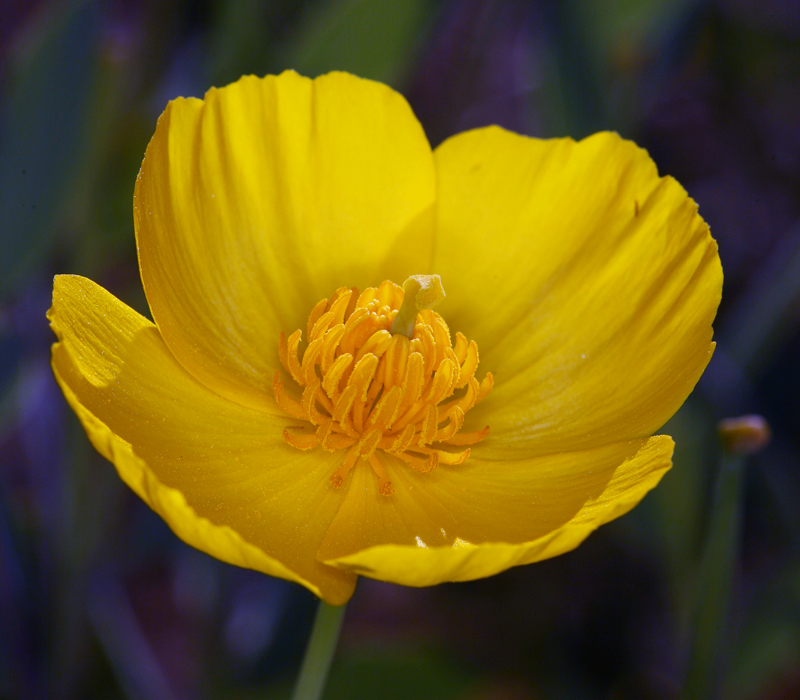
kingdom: Plantae
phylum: Tracheophyta
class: Magnoliopsida
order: Ranunculales
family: Papaveraceae
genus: Dendromecon
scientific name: Dendromecon rigida
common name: Tree poppy
